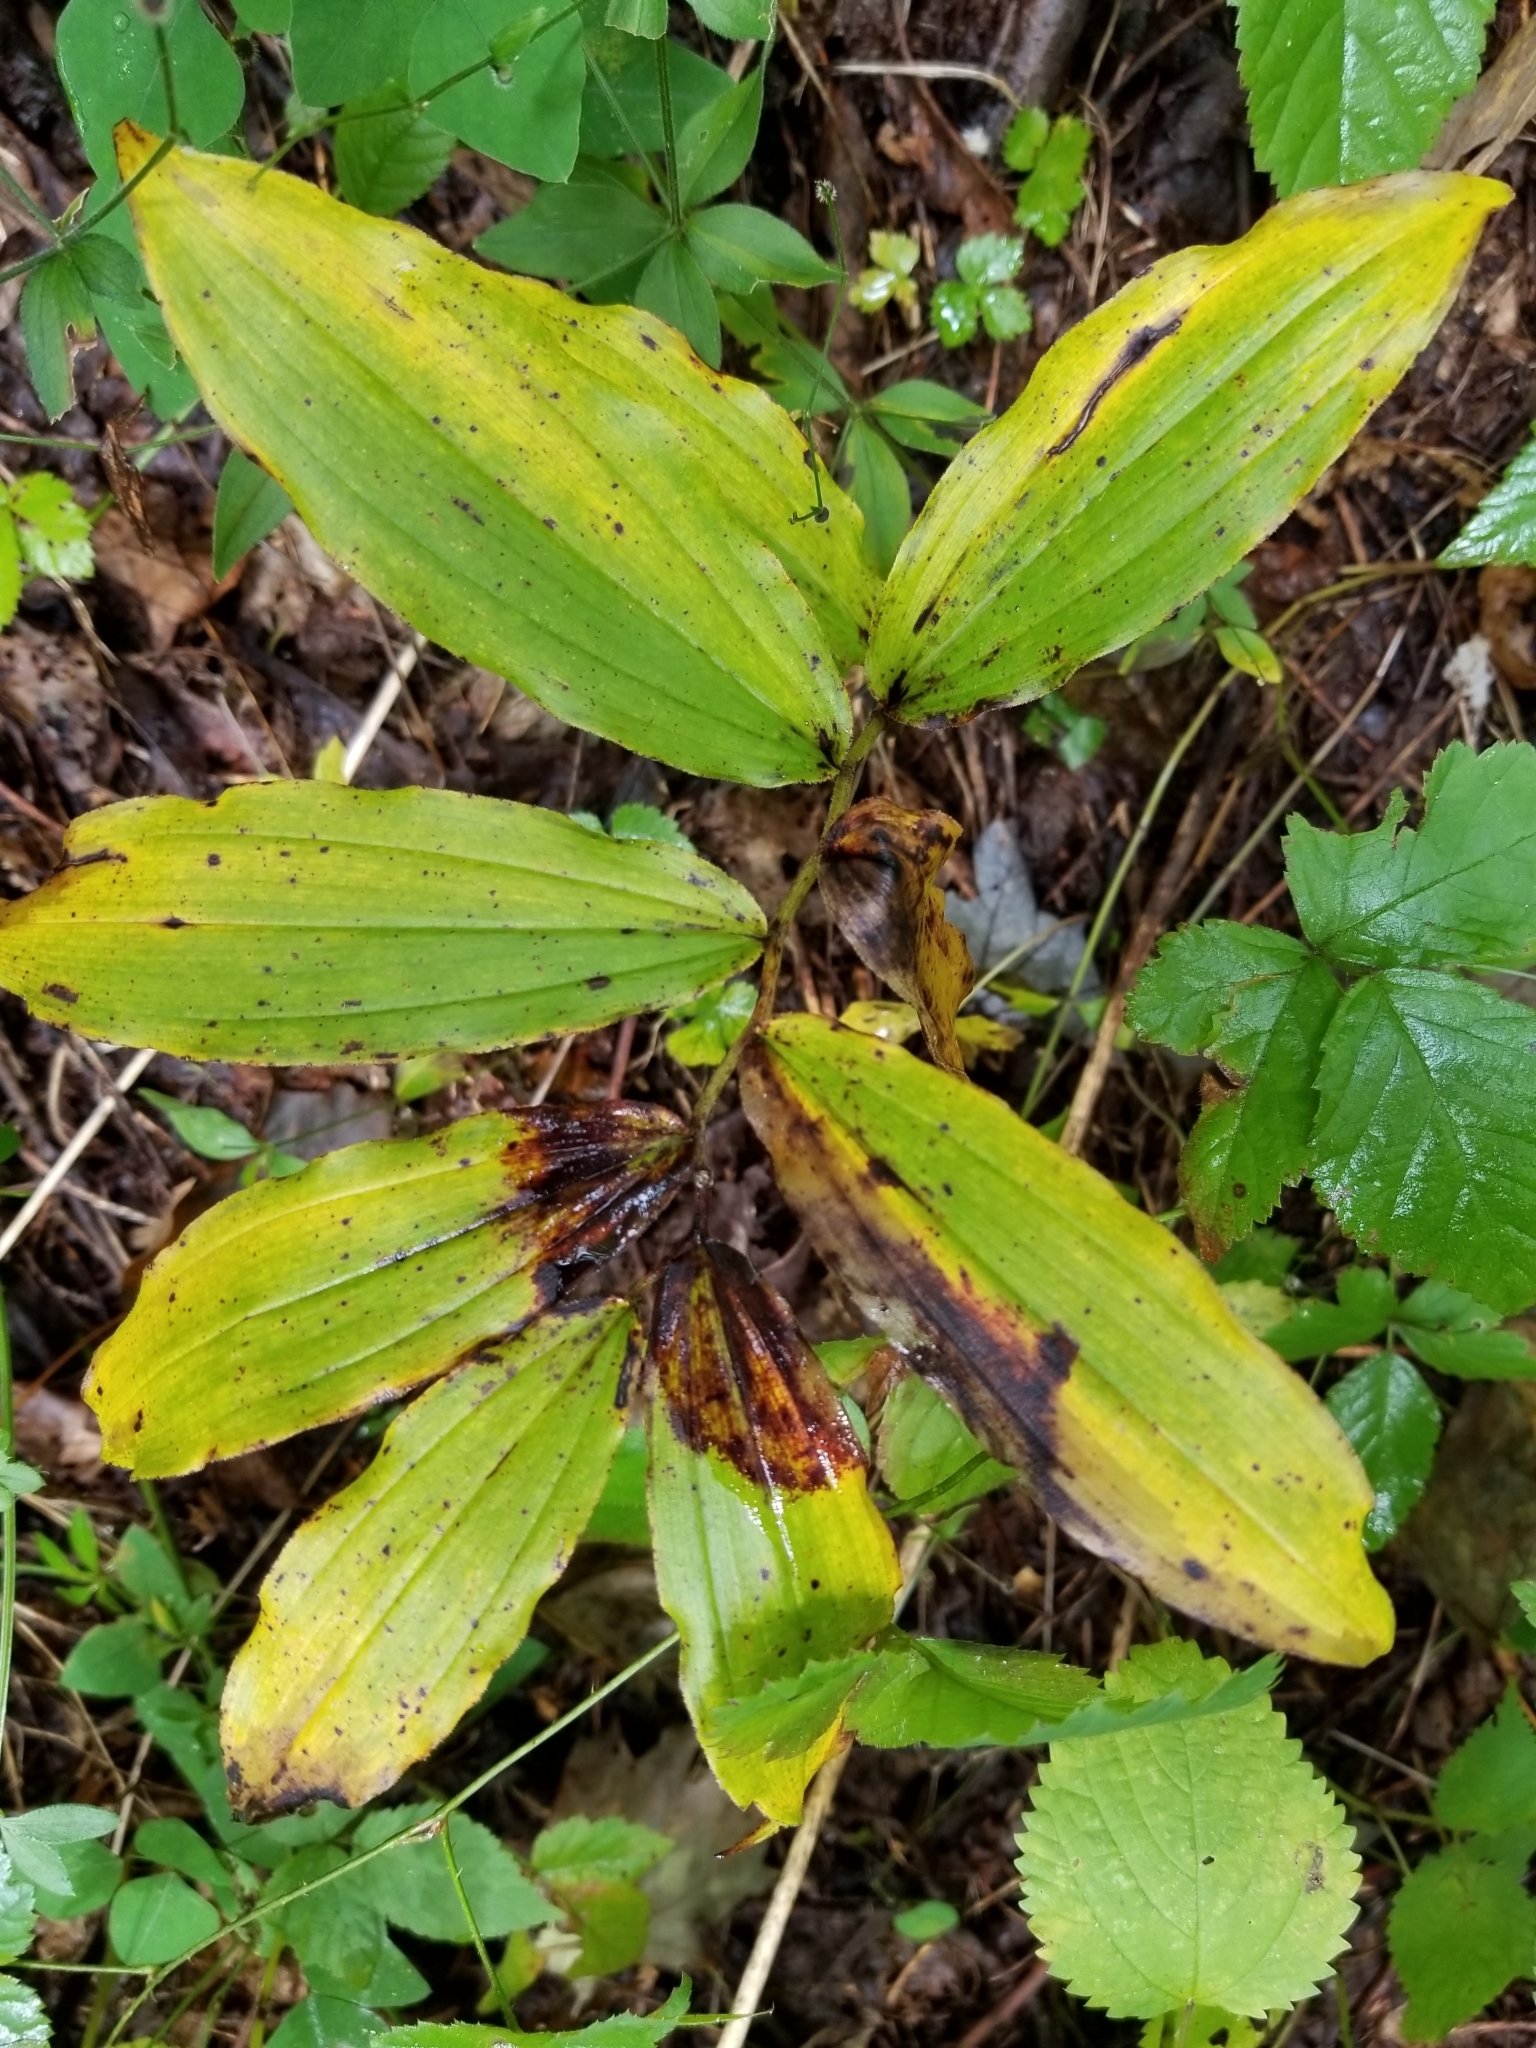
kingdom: Plantae
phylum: Tracheophyta
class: Liliopsida
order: Asparagales
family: Asparagaceae
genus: Maianthemum
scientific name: Maianthemum racemosum
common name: False spikenard
